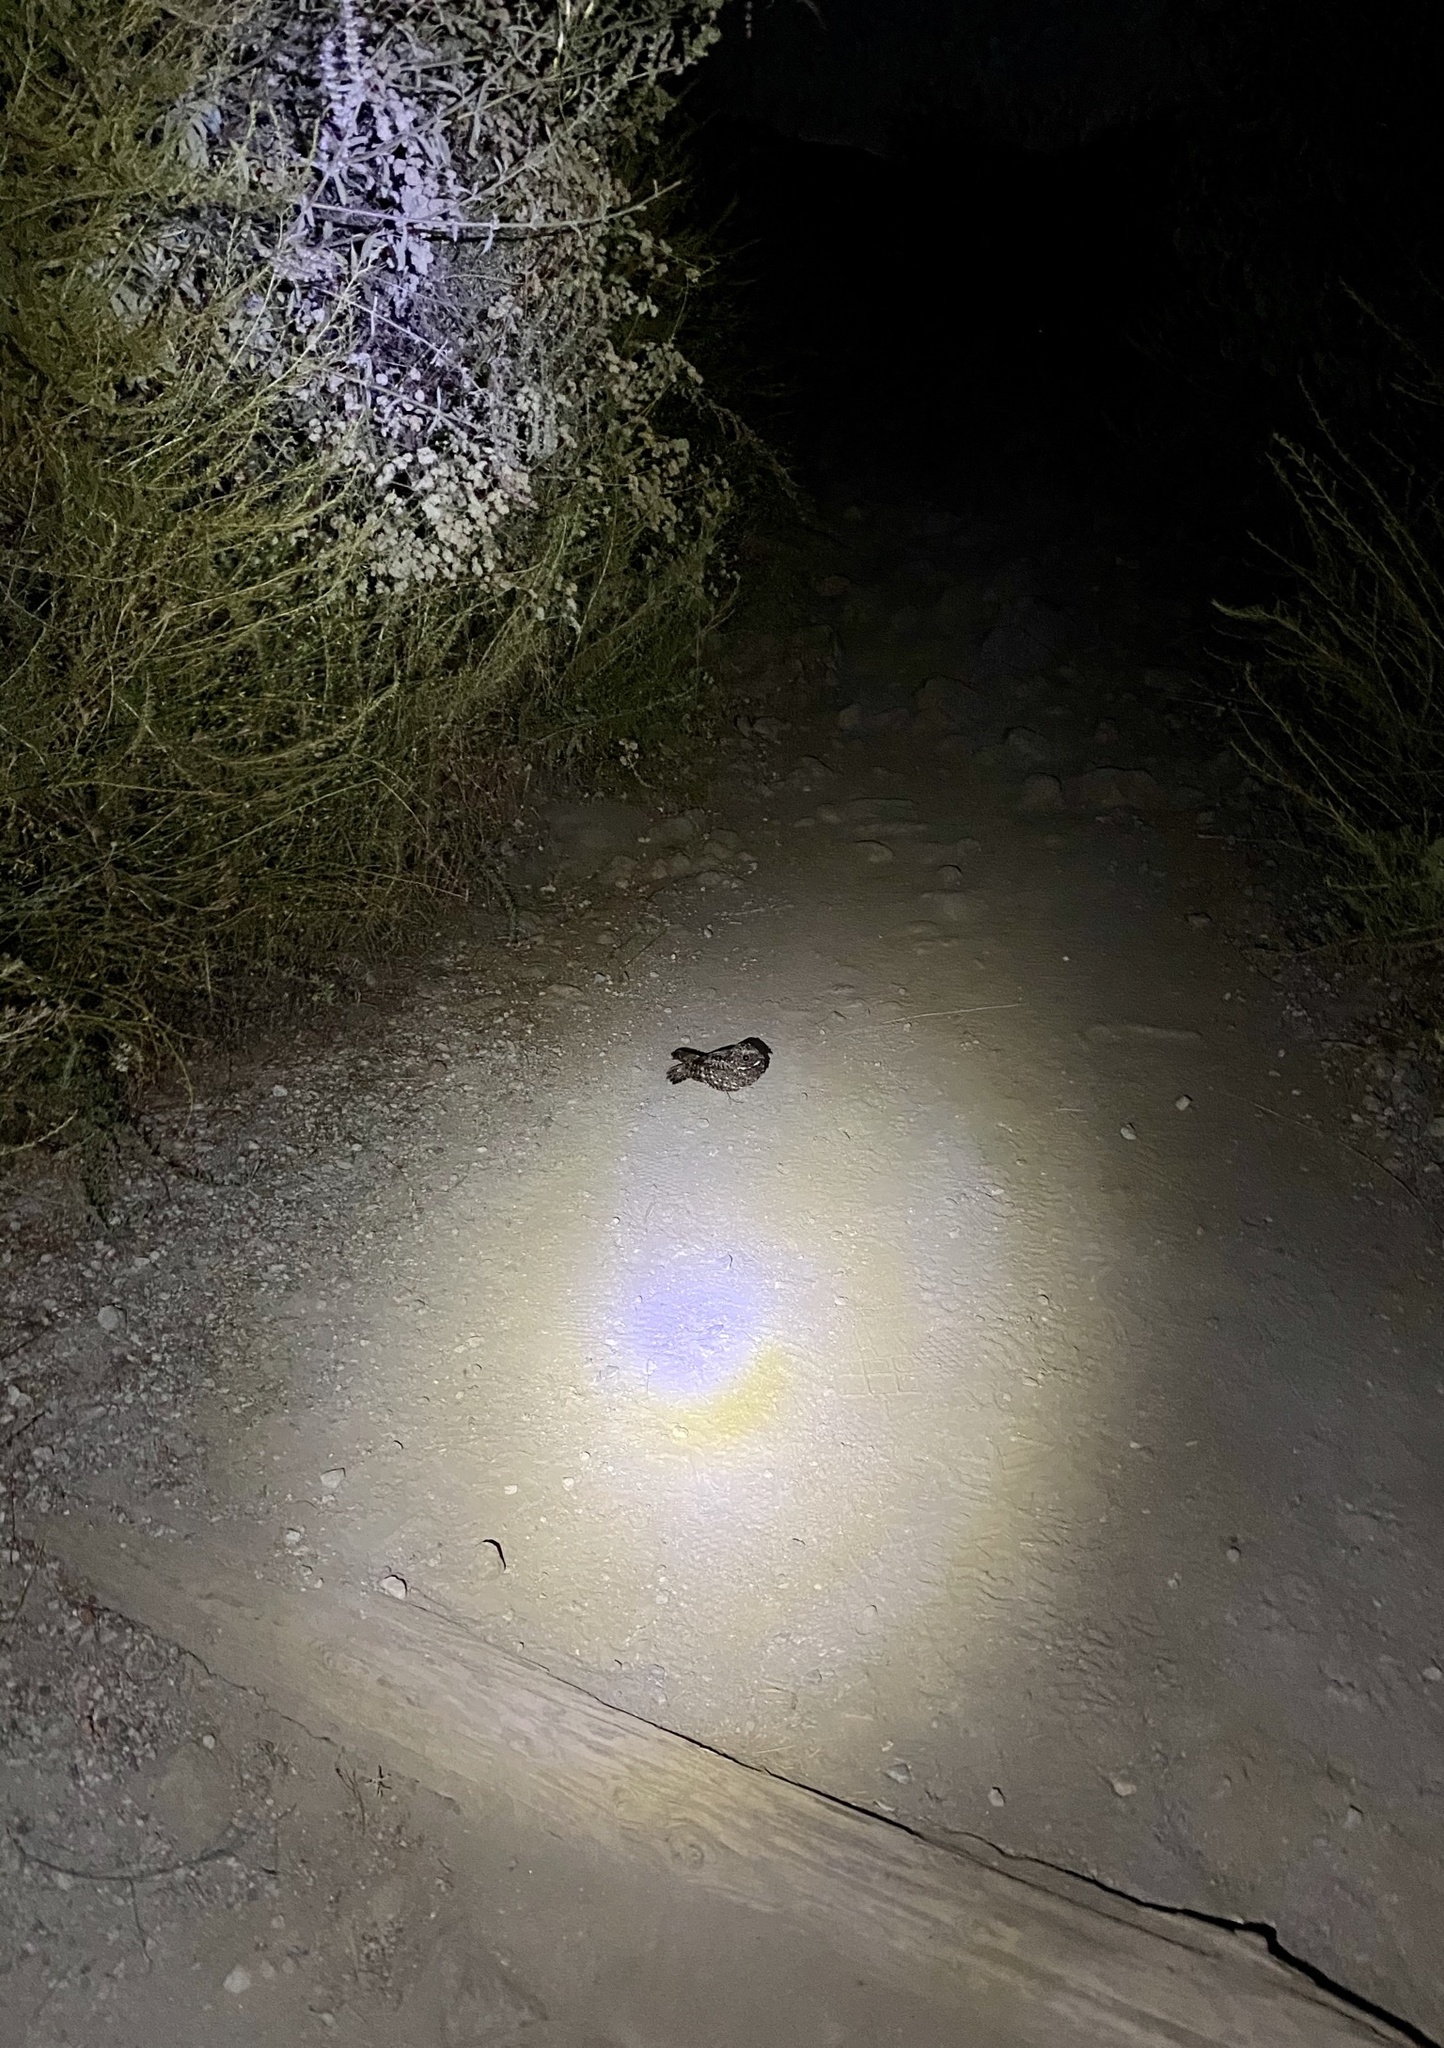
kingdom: Animalia
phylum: Chordata
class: Aves
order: Caprimulgiformes
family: Caprimulgidae
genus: Phalaenoptilus
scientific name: Phalaenoptilus nuttallii
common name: Common poorwill
